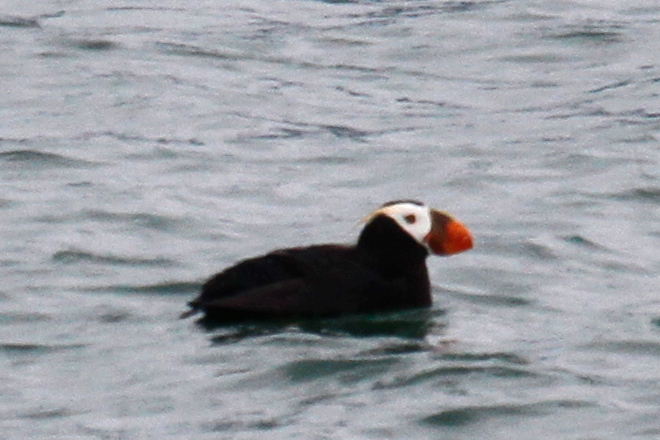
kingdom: Animalia
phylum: Chordata
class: Aves
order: Charadriiformes
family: Alcidae
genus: Fratercula
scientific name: Fratercula cirrhata
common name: Tufted puffin
